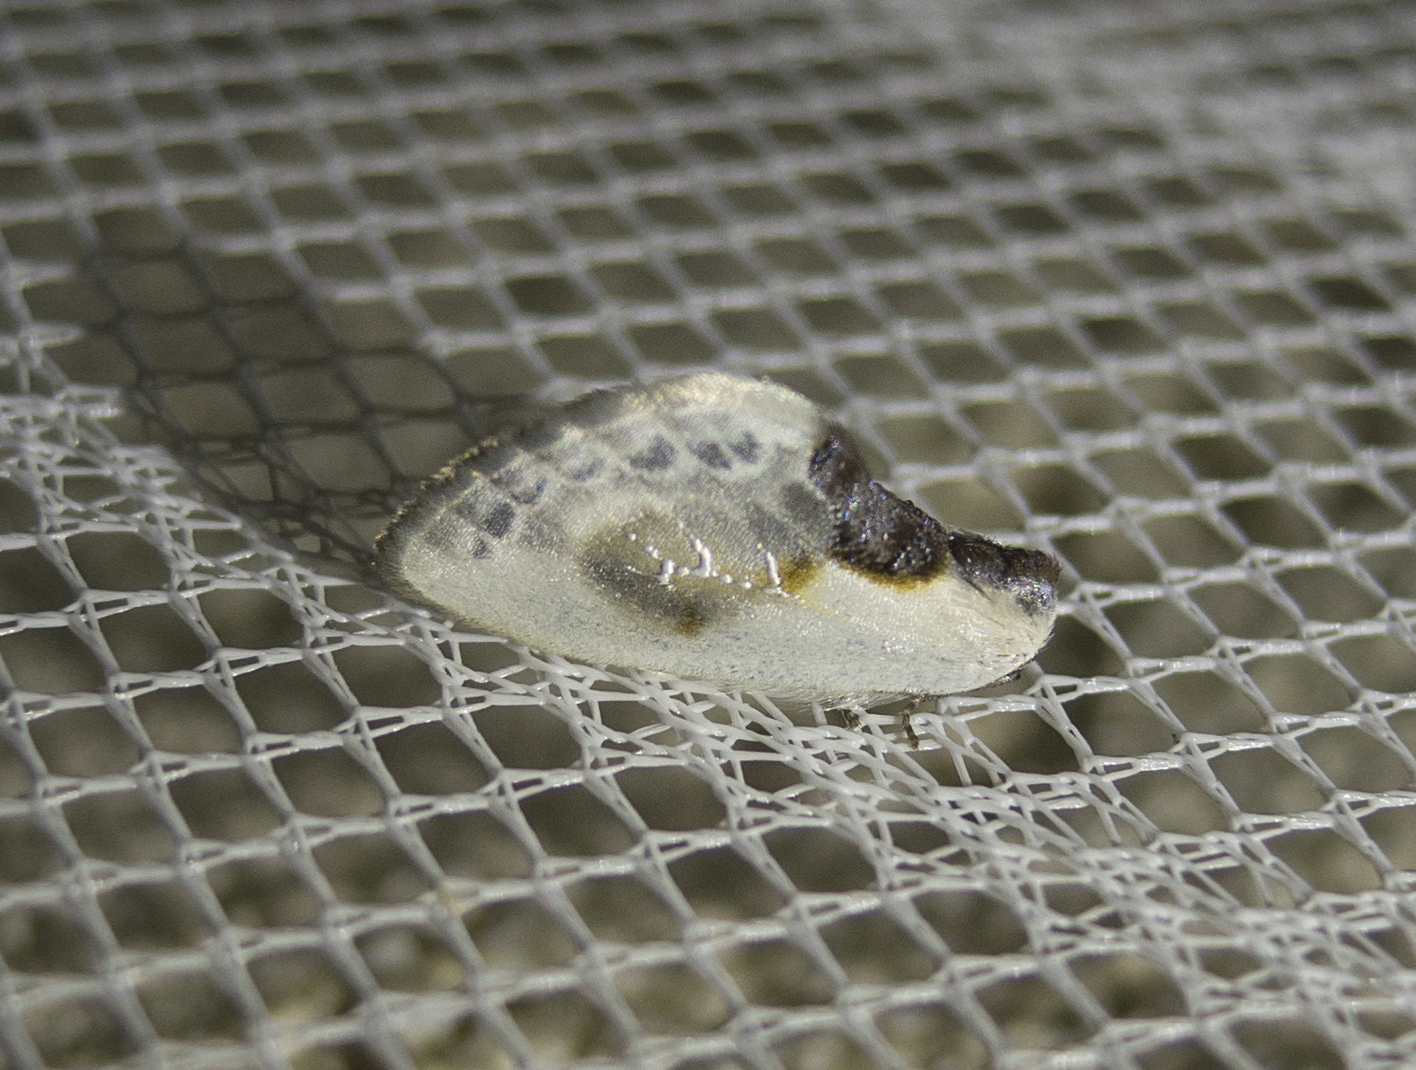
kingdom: Animalia
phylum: Arthropoda
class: Insecta
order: Lepidoptera
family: Drepanidae
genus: Cilix
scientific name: Cilix glaucata
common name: Chinese character
